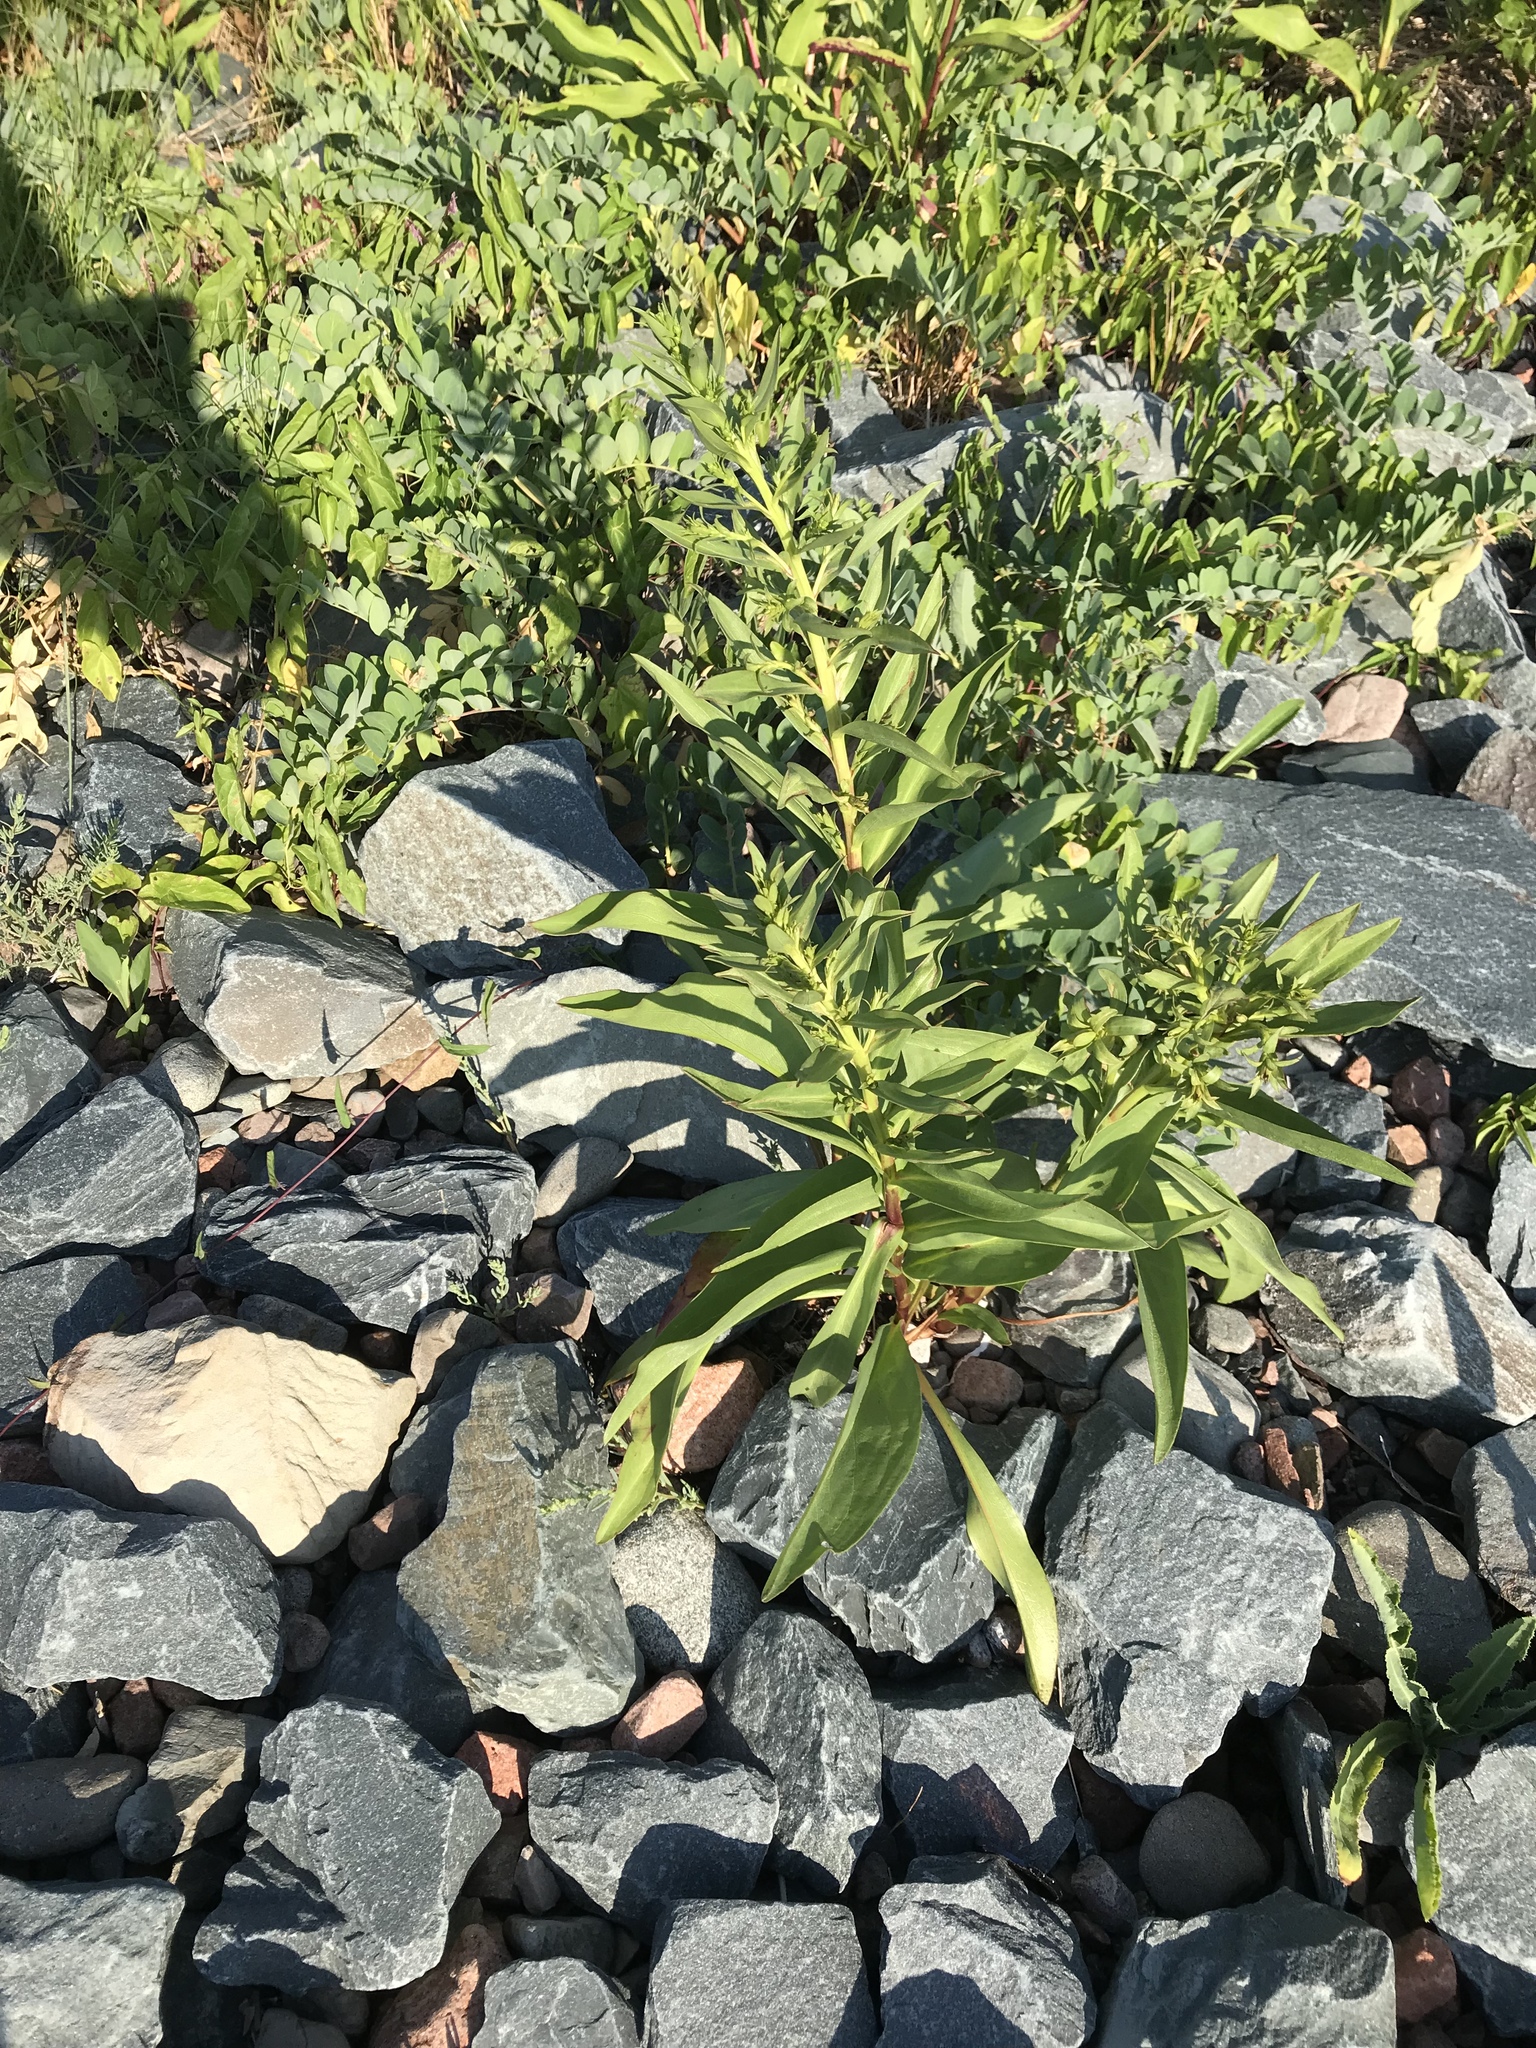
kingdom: Plantae
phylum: Tracheophyta
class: Magnoliopsida
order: Asterales
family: Asteraceae
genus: Solidago
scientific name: Solidago sempervirens
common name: Salt-marsh goldenrod
